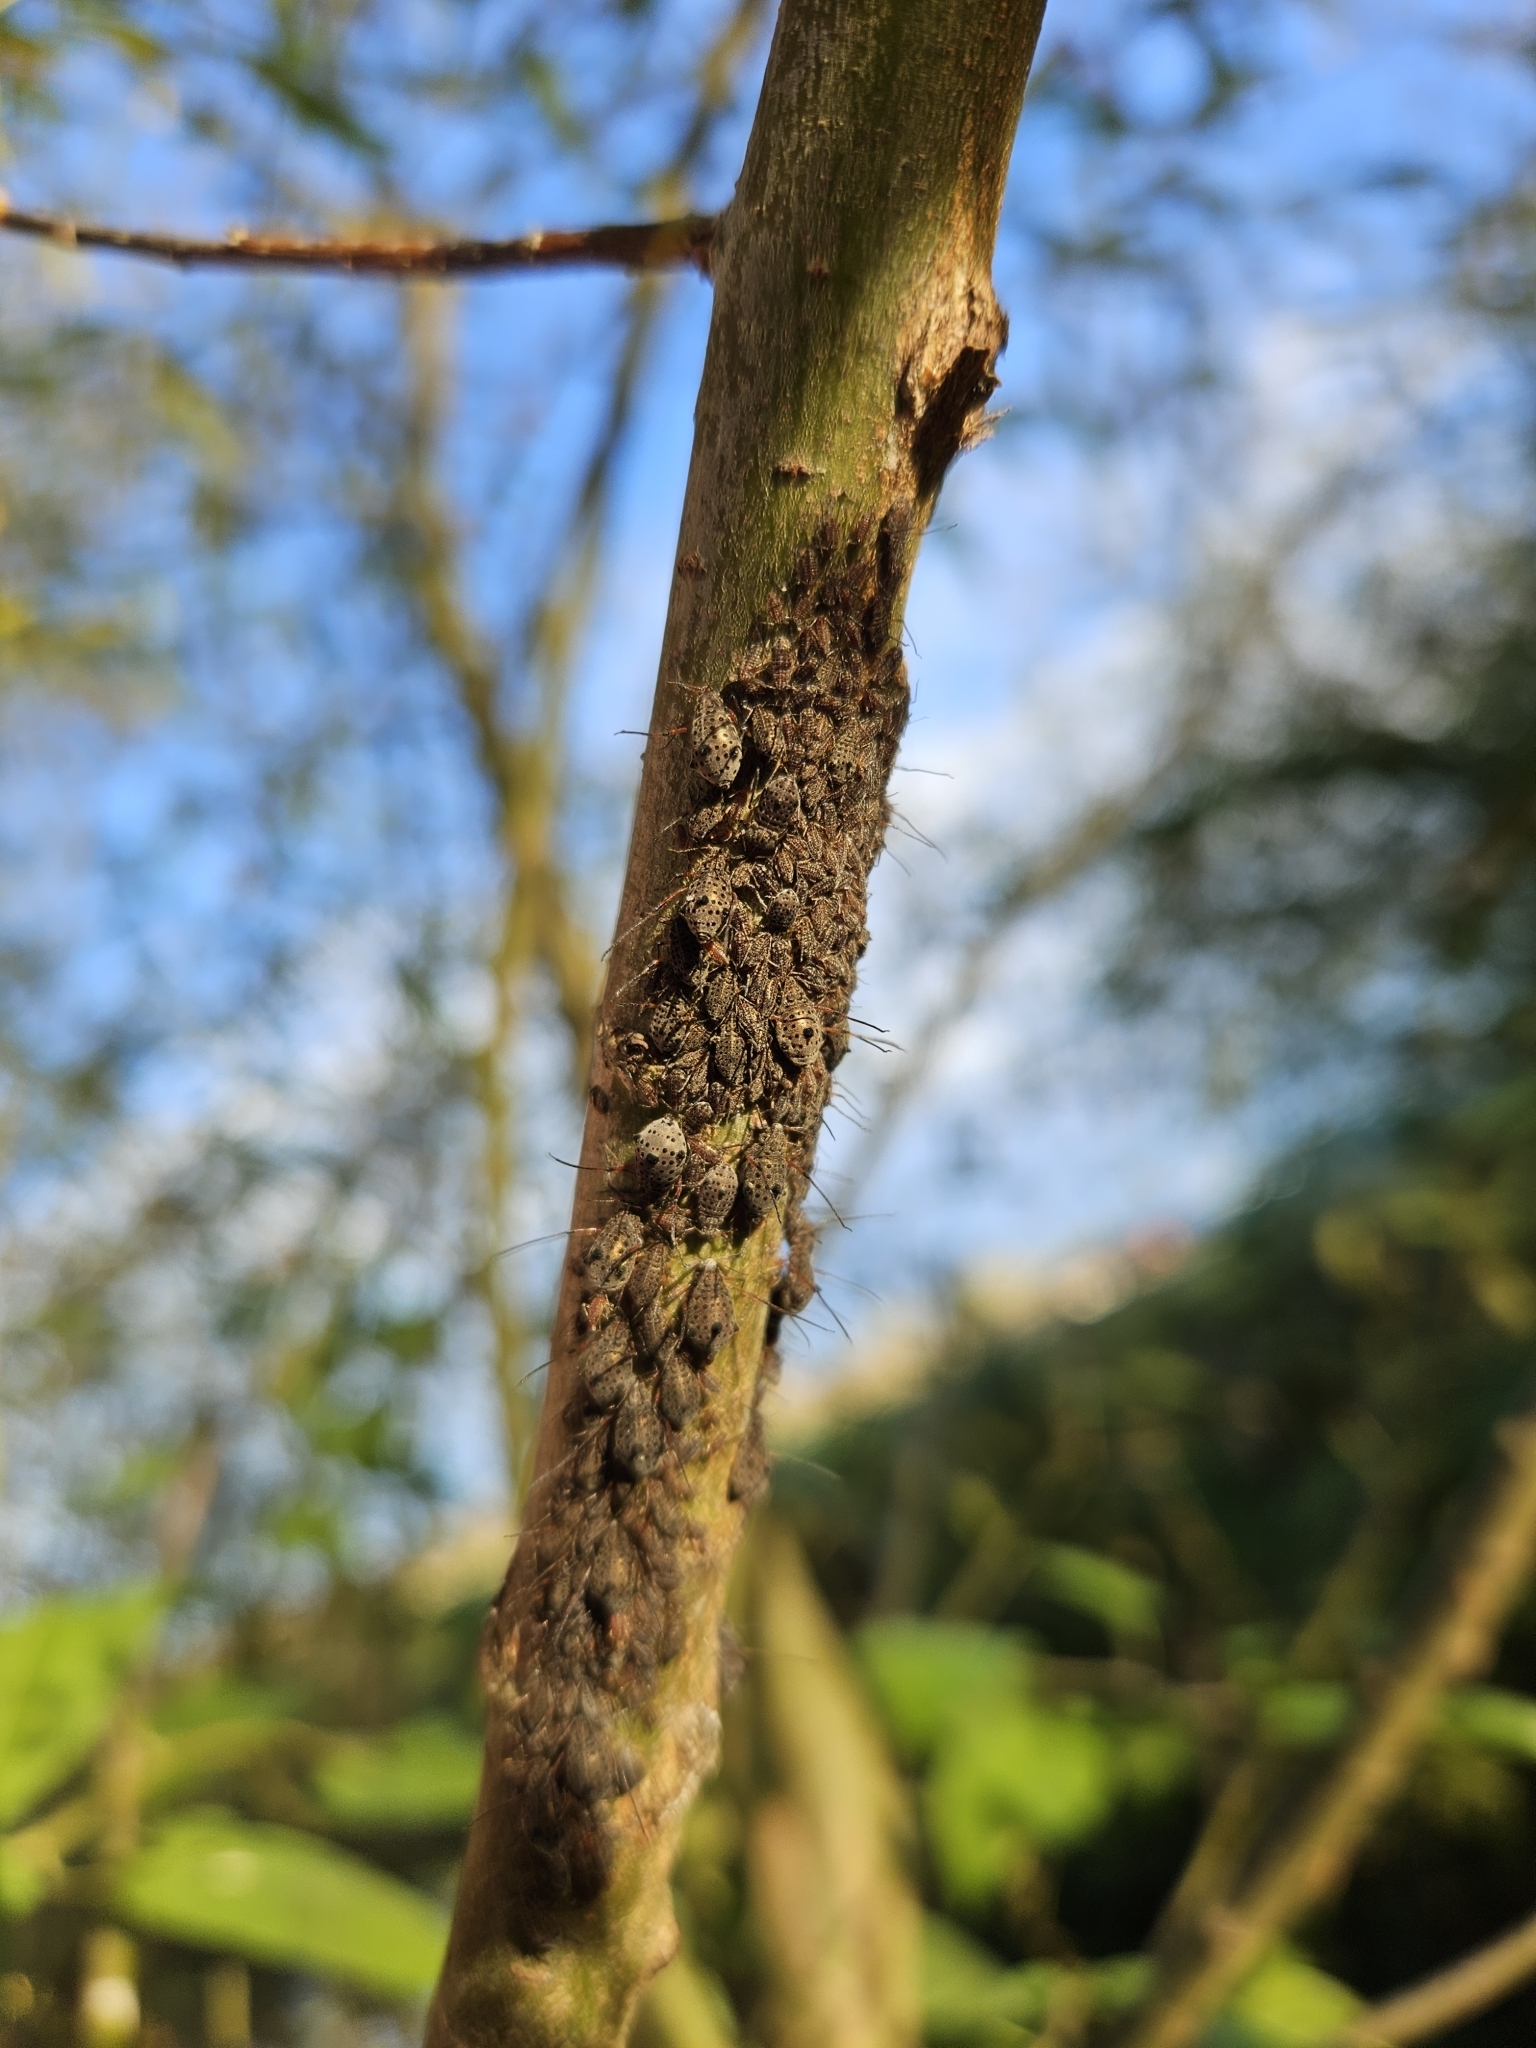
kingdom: Animalia
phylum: Arthropoda
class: Insecta
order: Hemiptera
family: Aphididae
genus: Tuberolachnus
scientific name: Tuberolachnus salignus
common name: Giant willow aphid
